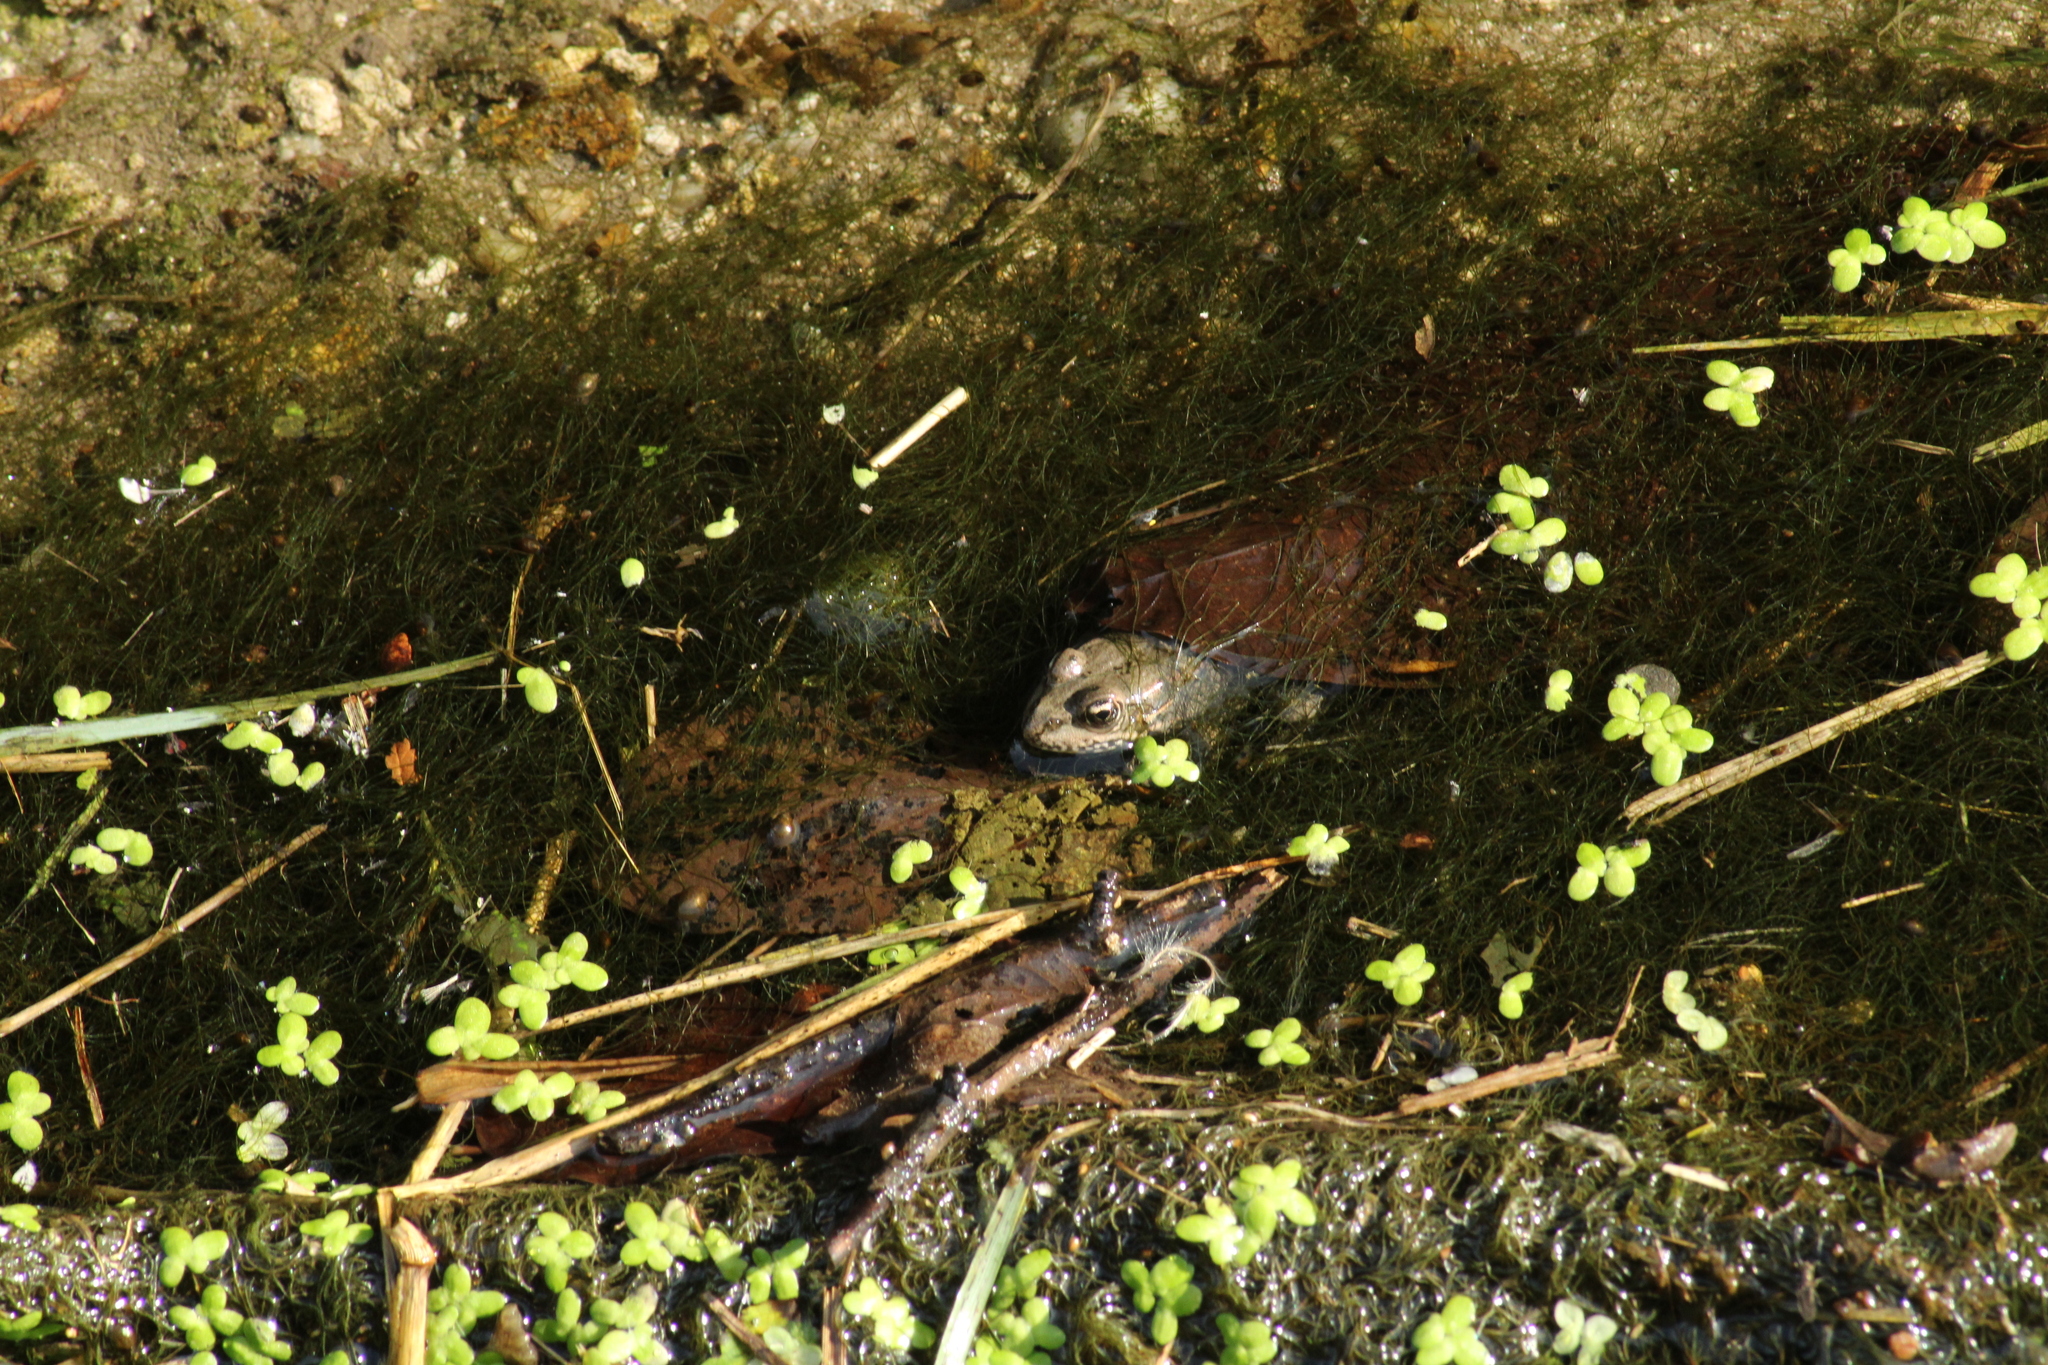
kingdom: Animalia
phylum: Chordata
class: Amphibia
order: Anura
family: Ranidae
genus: Pelophylax
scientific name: Pelophylax
